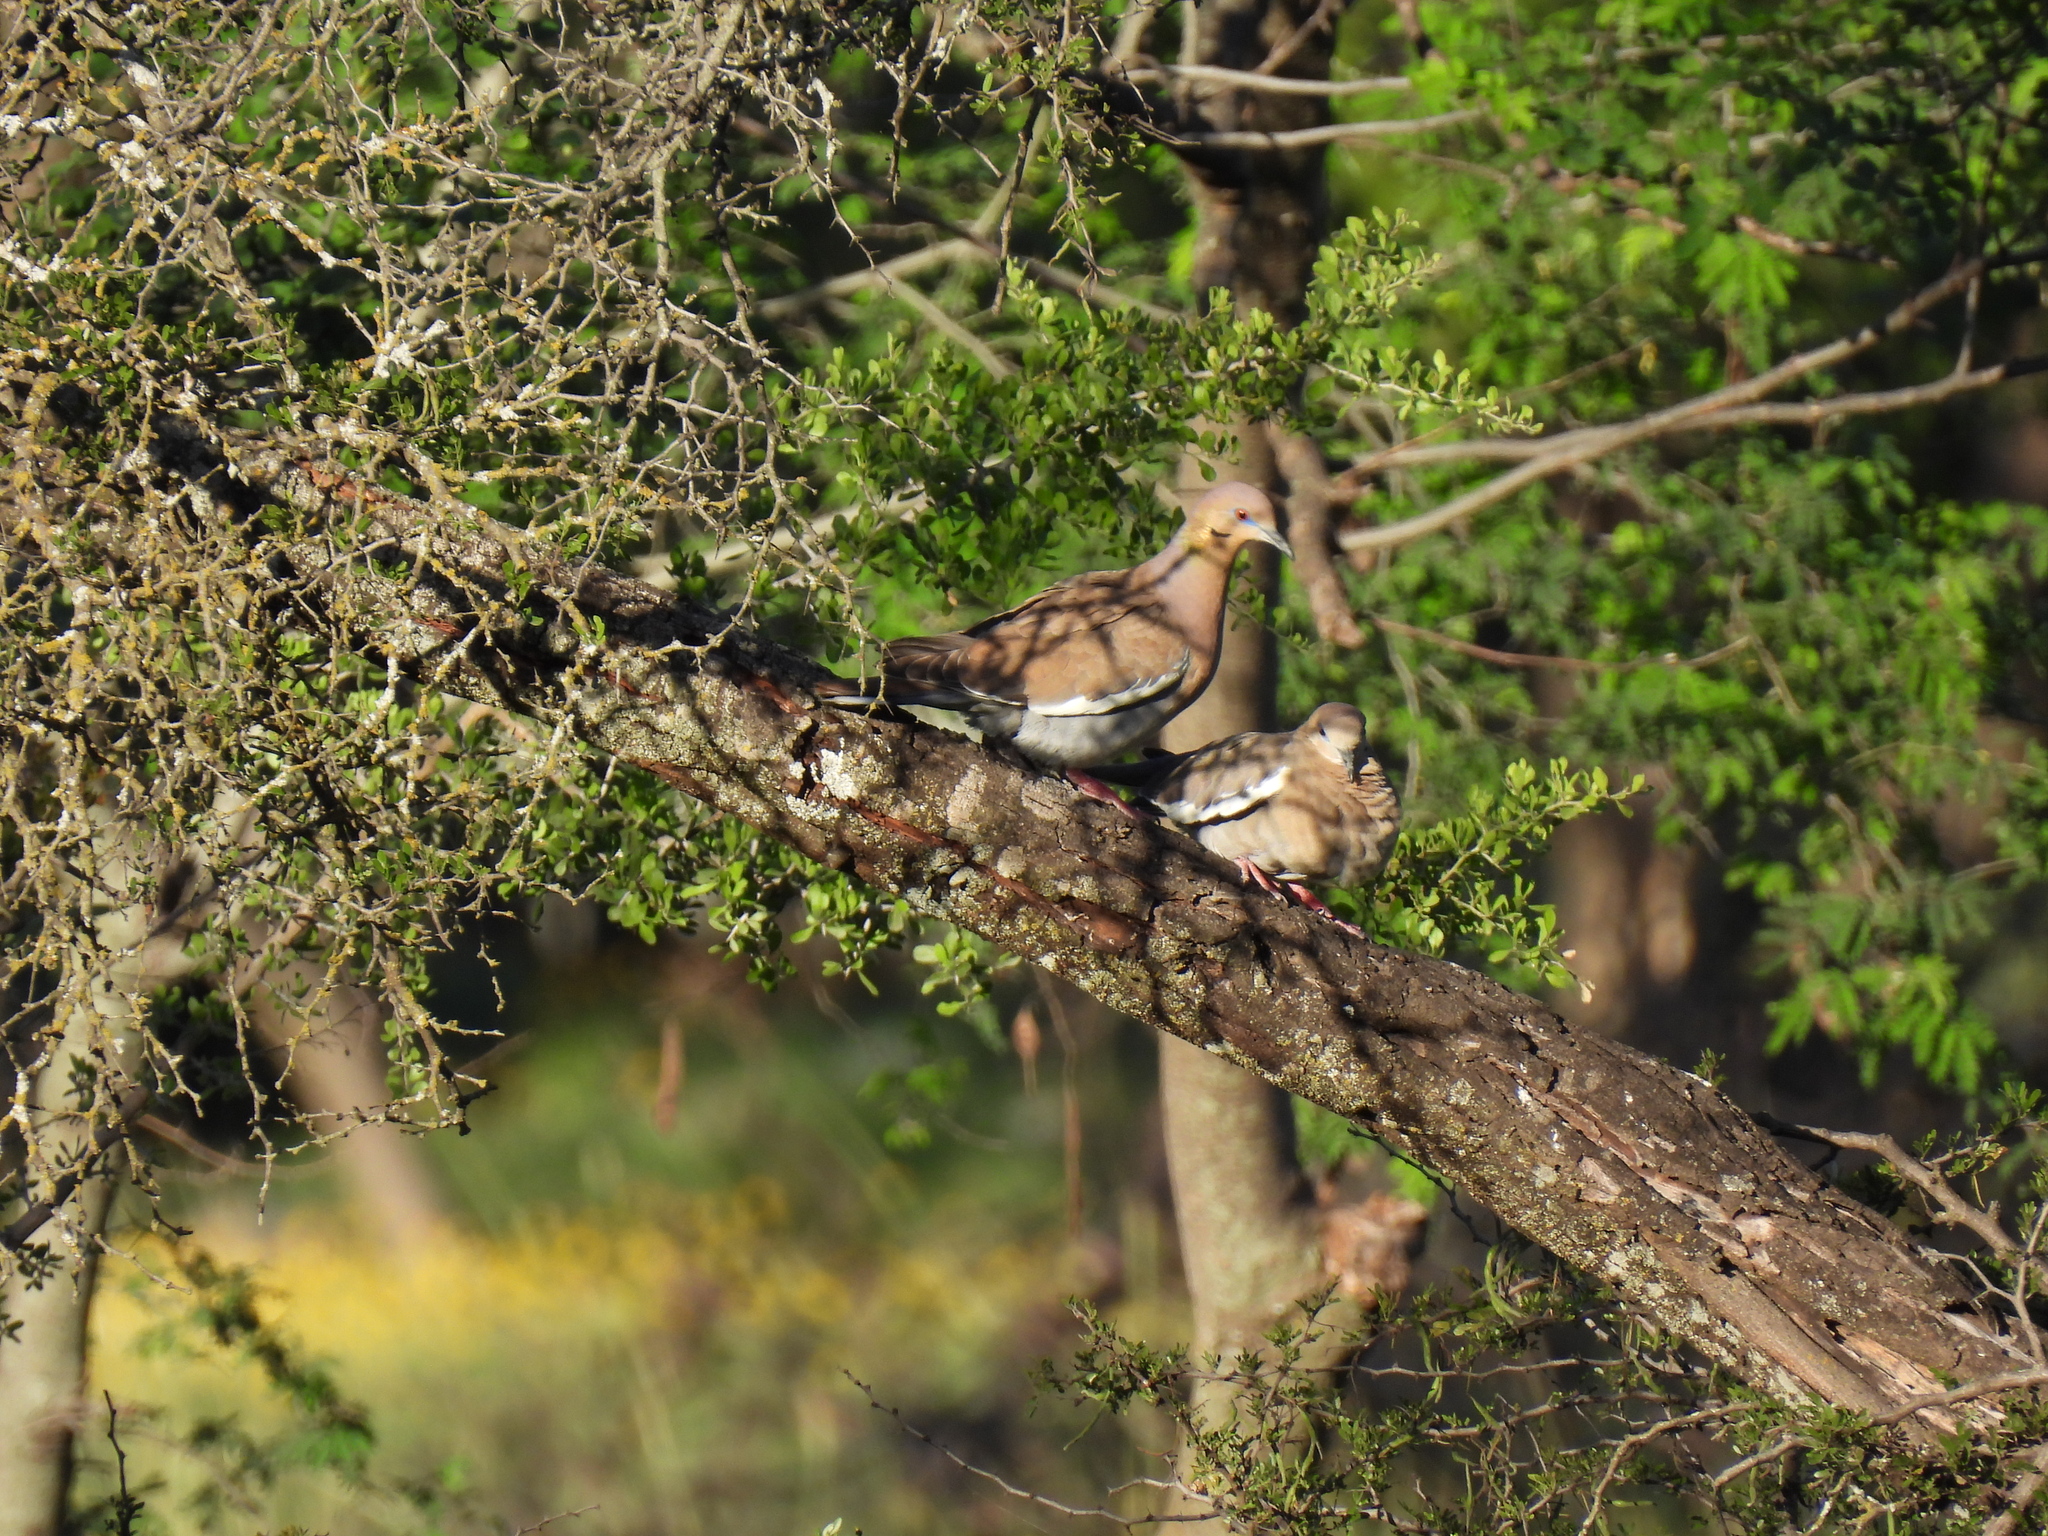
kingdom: Animalia
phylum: Chordata
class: Aves
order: Columbiformes
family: Columbidae
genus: Zenaida
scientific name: Zenaida asiatica
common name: White-winged dove
